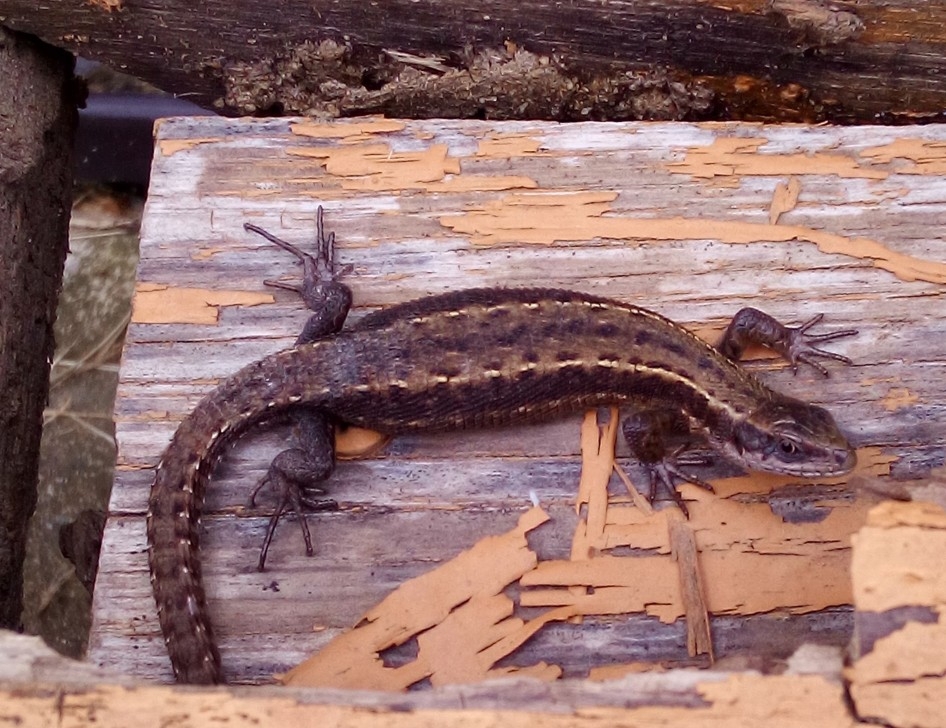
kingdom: Animalia
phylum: Chordata
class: Squamata
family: Lacertidae
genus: Zootoca
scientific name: Zootoca vivipara
